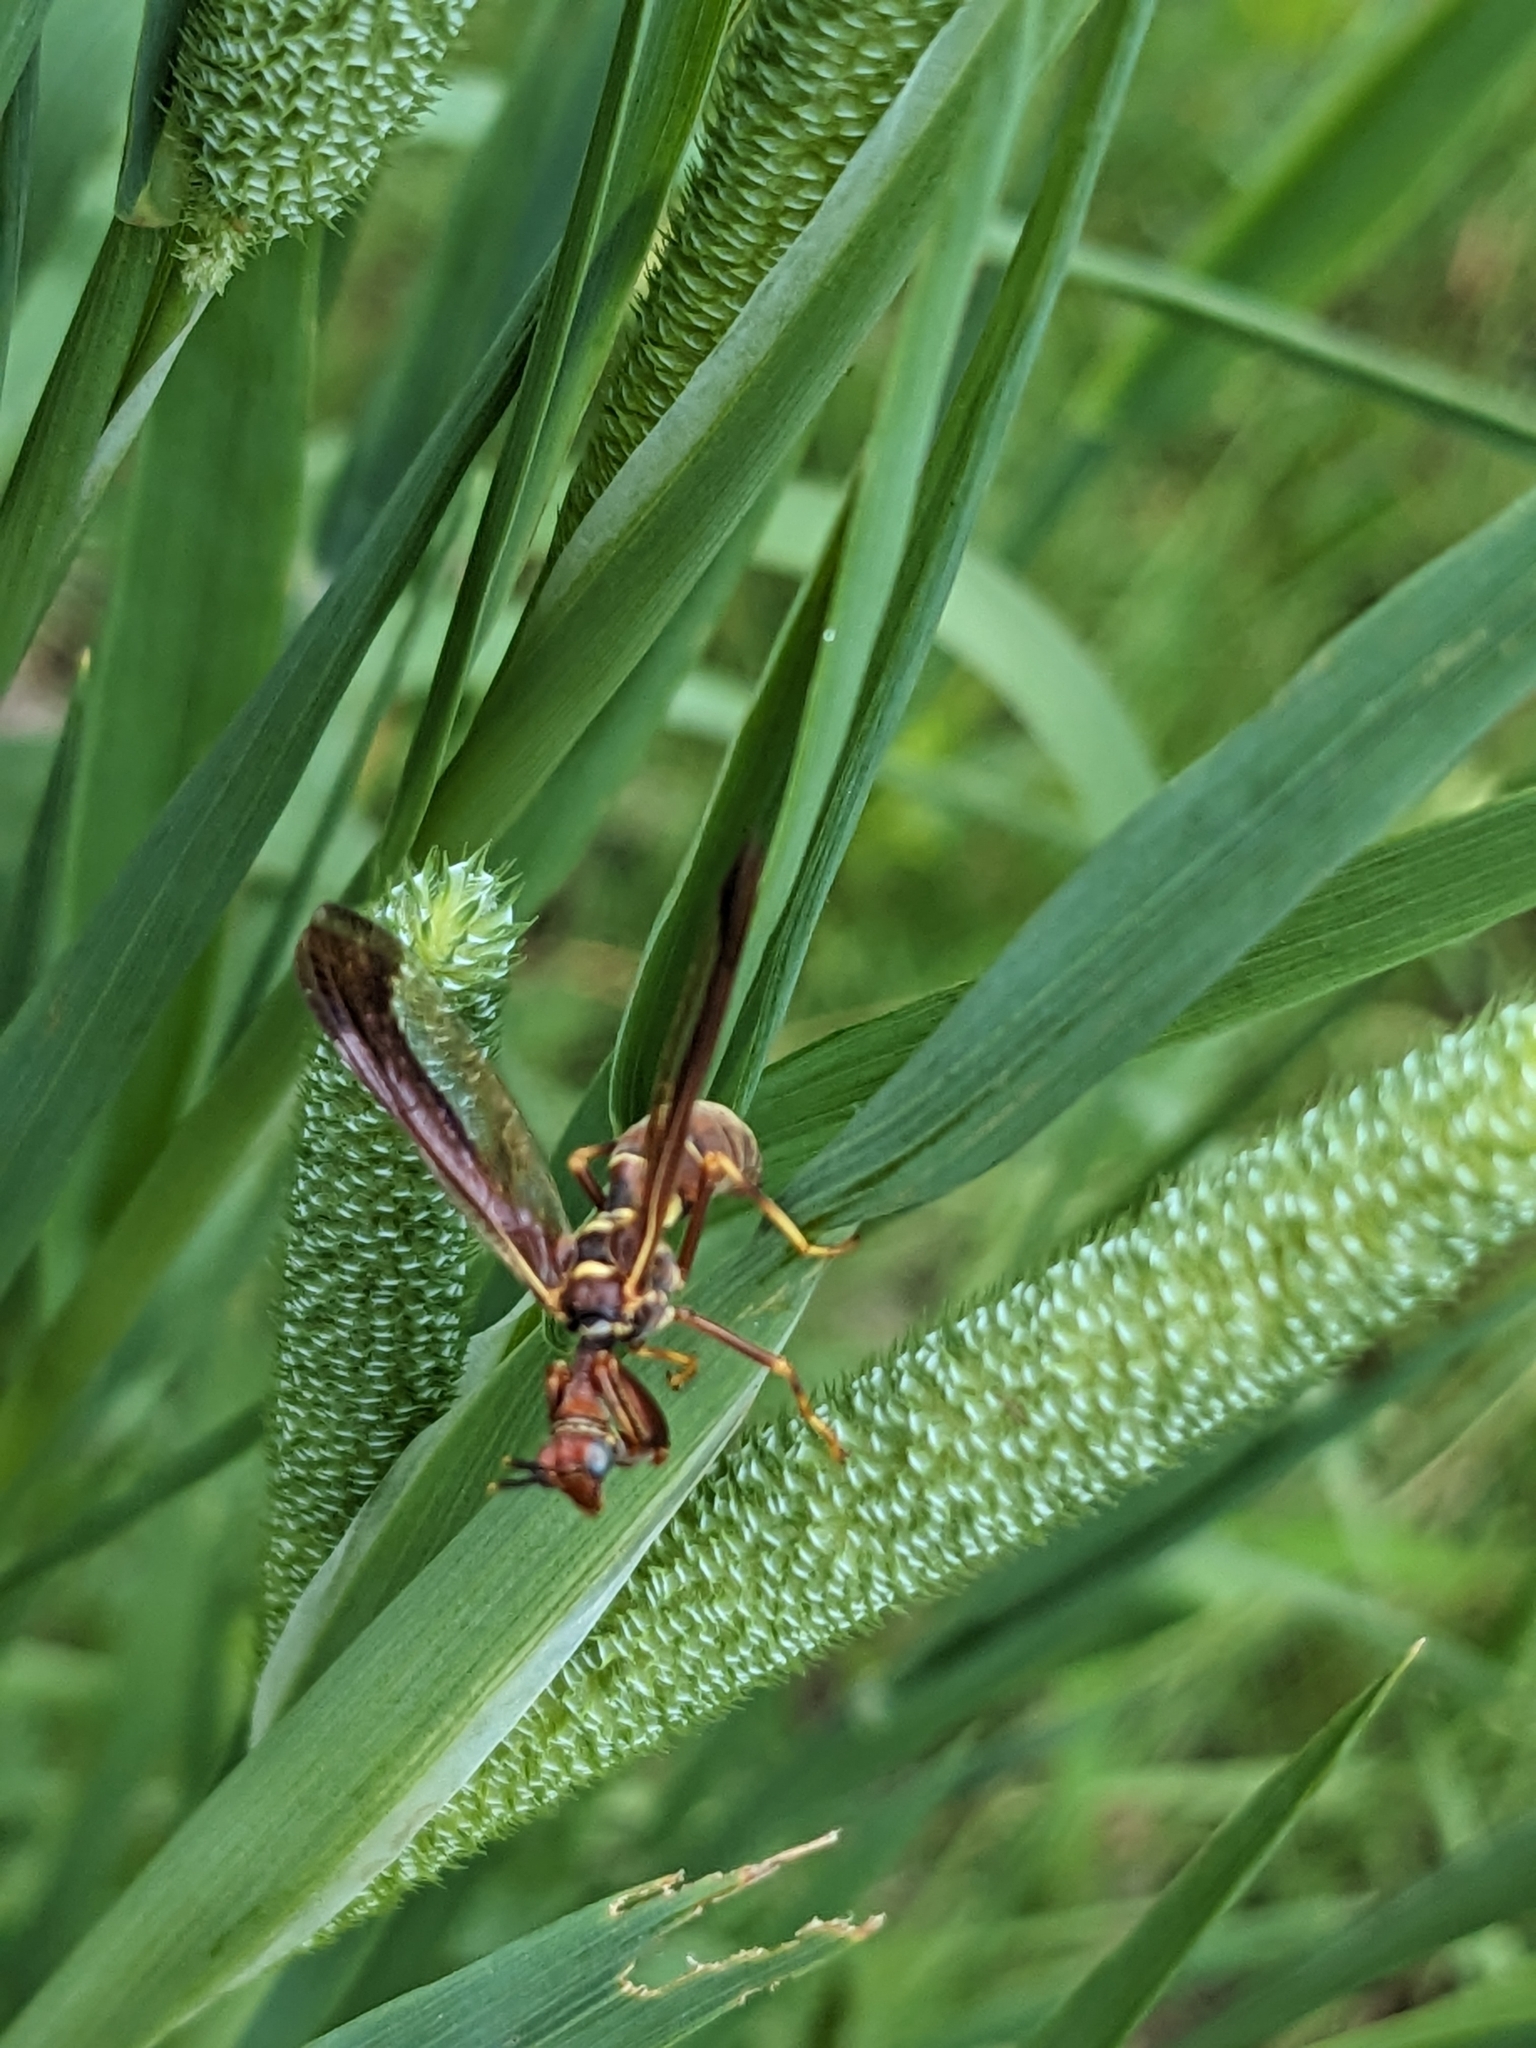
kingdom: Animalia
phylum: Arthropoda
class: Insecta
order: Neuroptera
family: Mantispidae
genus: Climaciella
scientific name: Climaciella brunnea
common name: Brown wasp mantidfly
